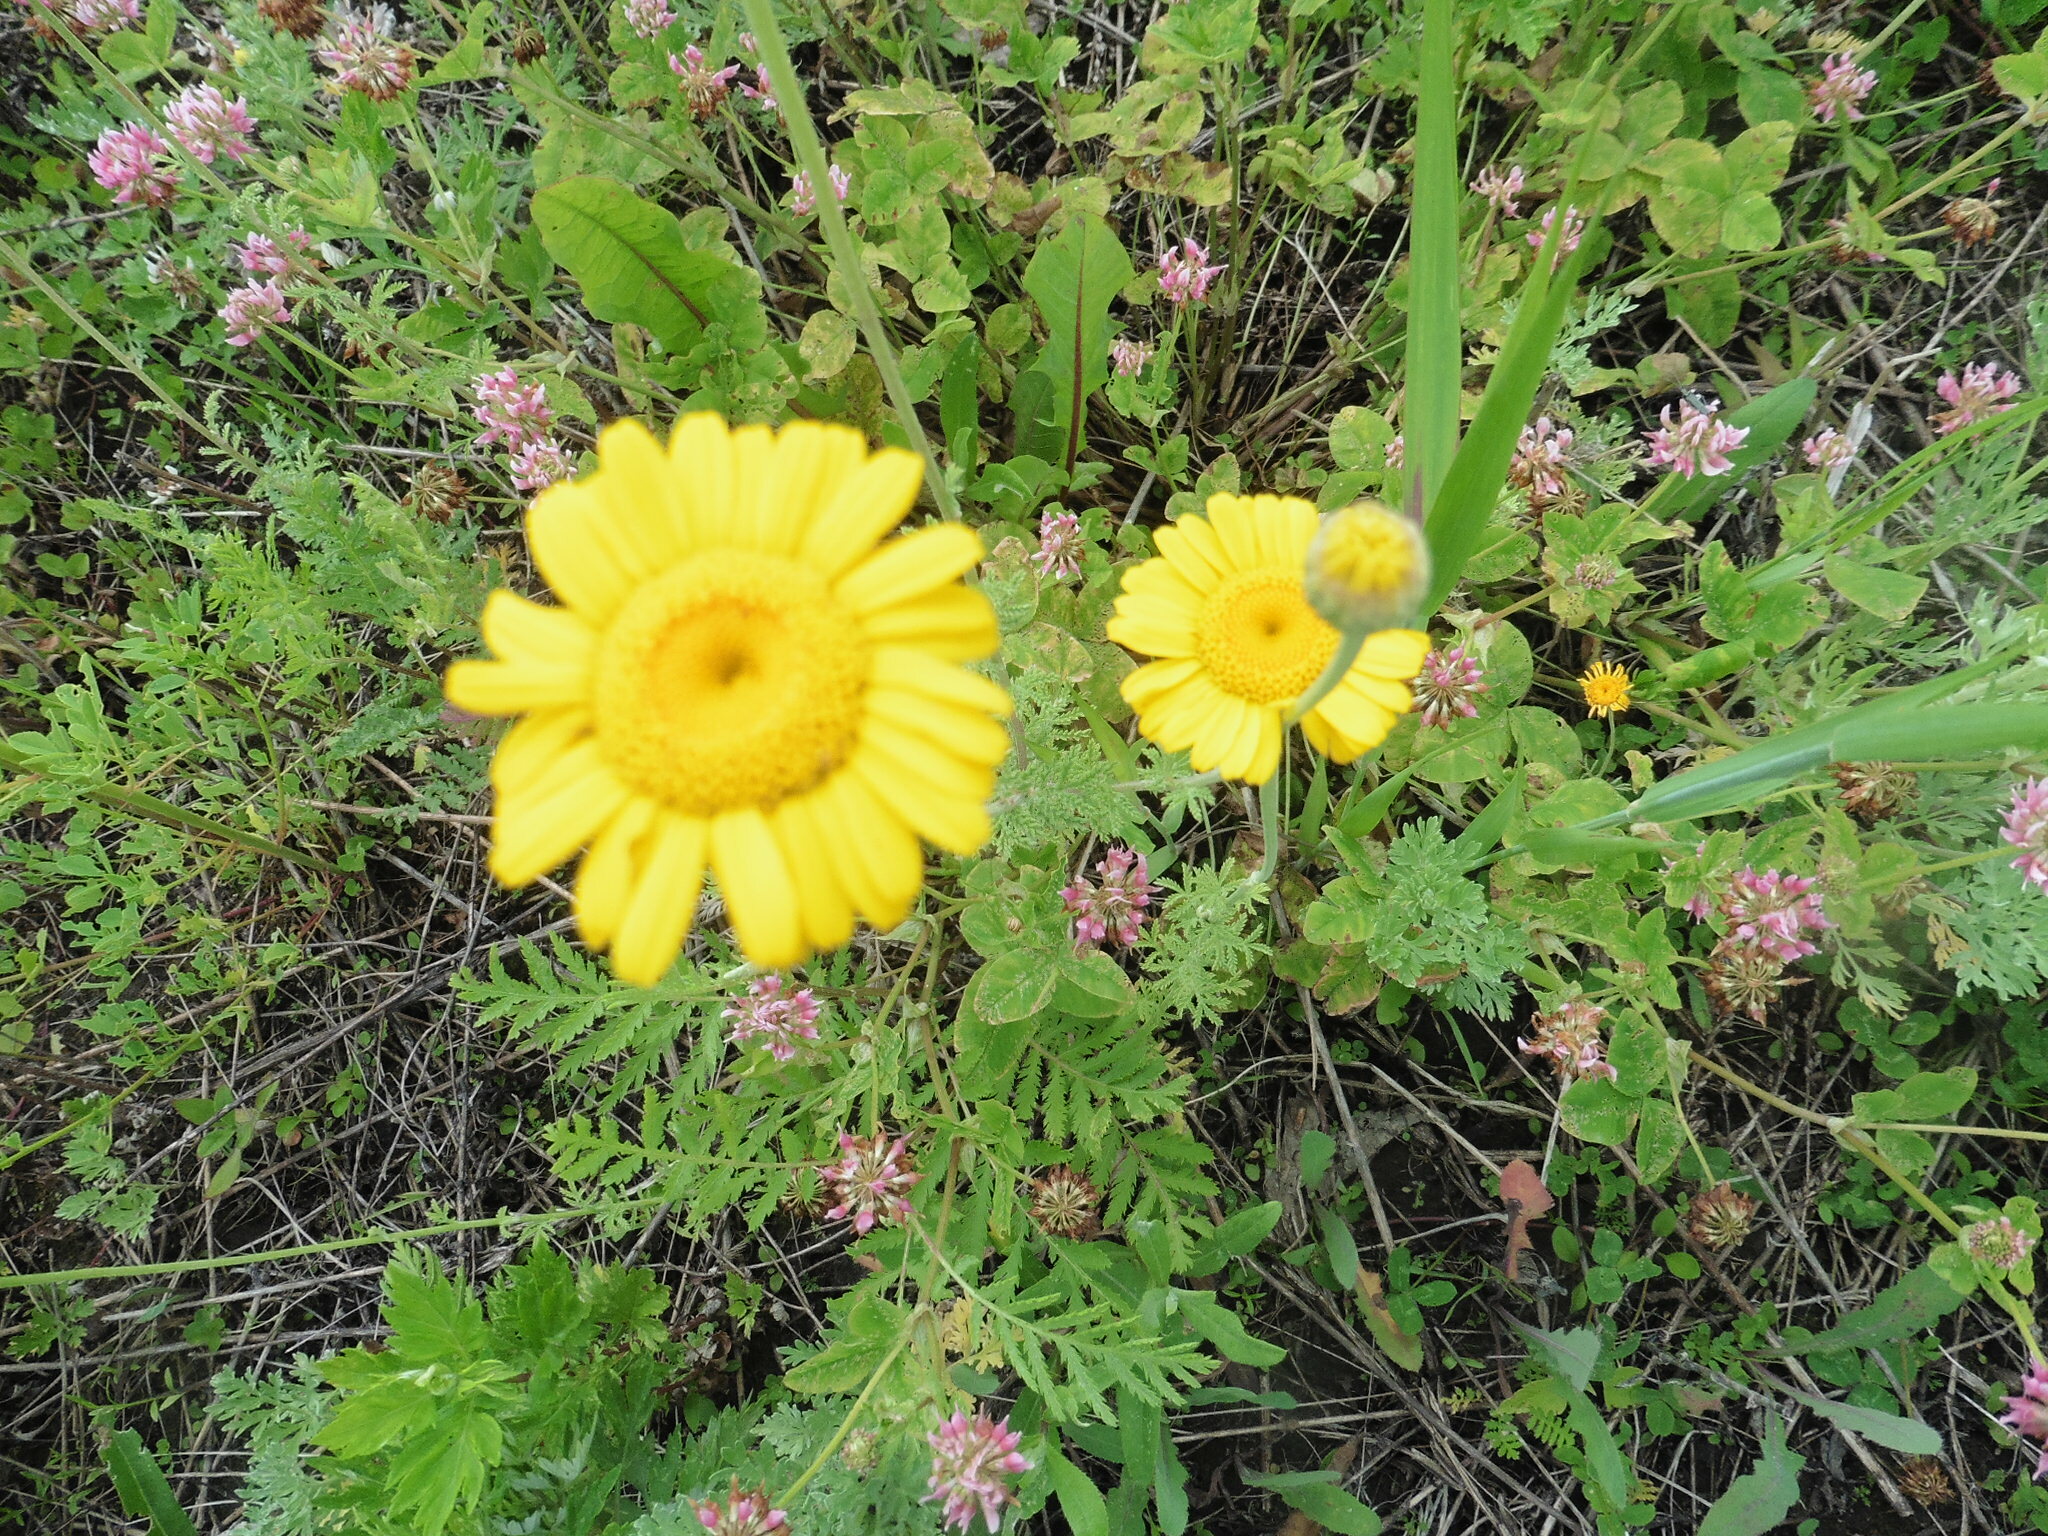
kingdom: Plantae
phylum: Tracheophyta
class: Magnoliopsida
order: Asterales
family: Asteraceae
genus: Cota
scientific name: Cota tinctoria
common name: Golden chamomile
